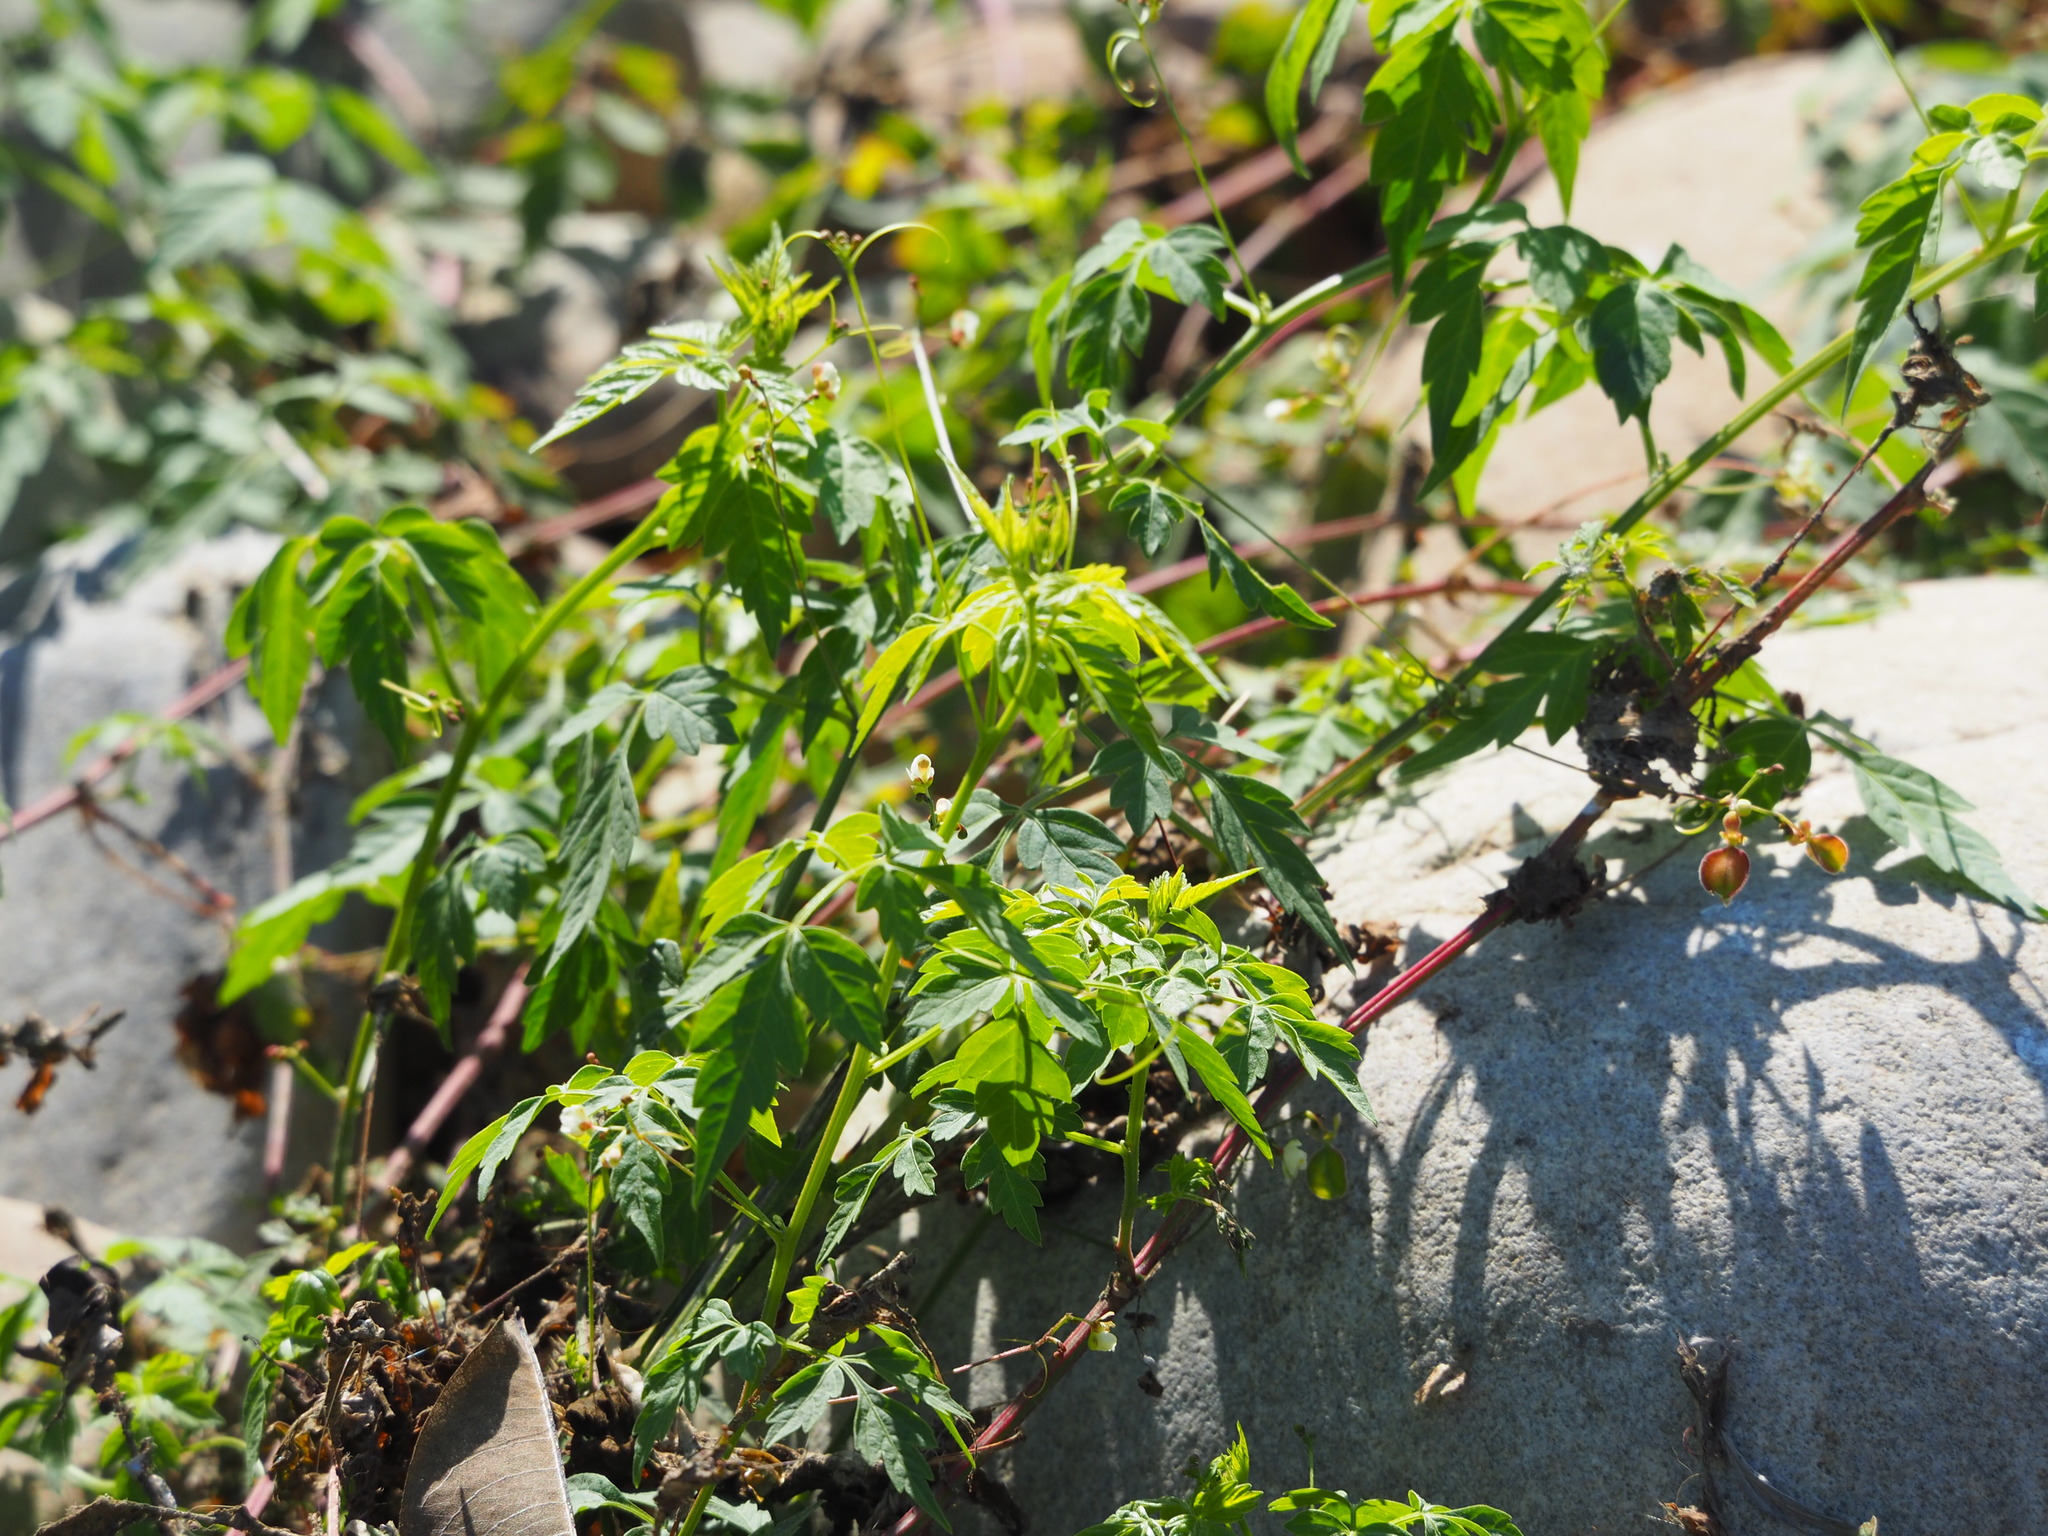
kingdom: Plantae
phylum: Tracheophyta
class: Magnoliopsida
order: Sapindales
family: Sapindaceae
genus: Cardiospermum
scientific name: Cardiospermum halicacabum
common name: Balloon vine
